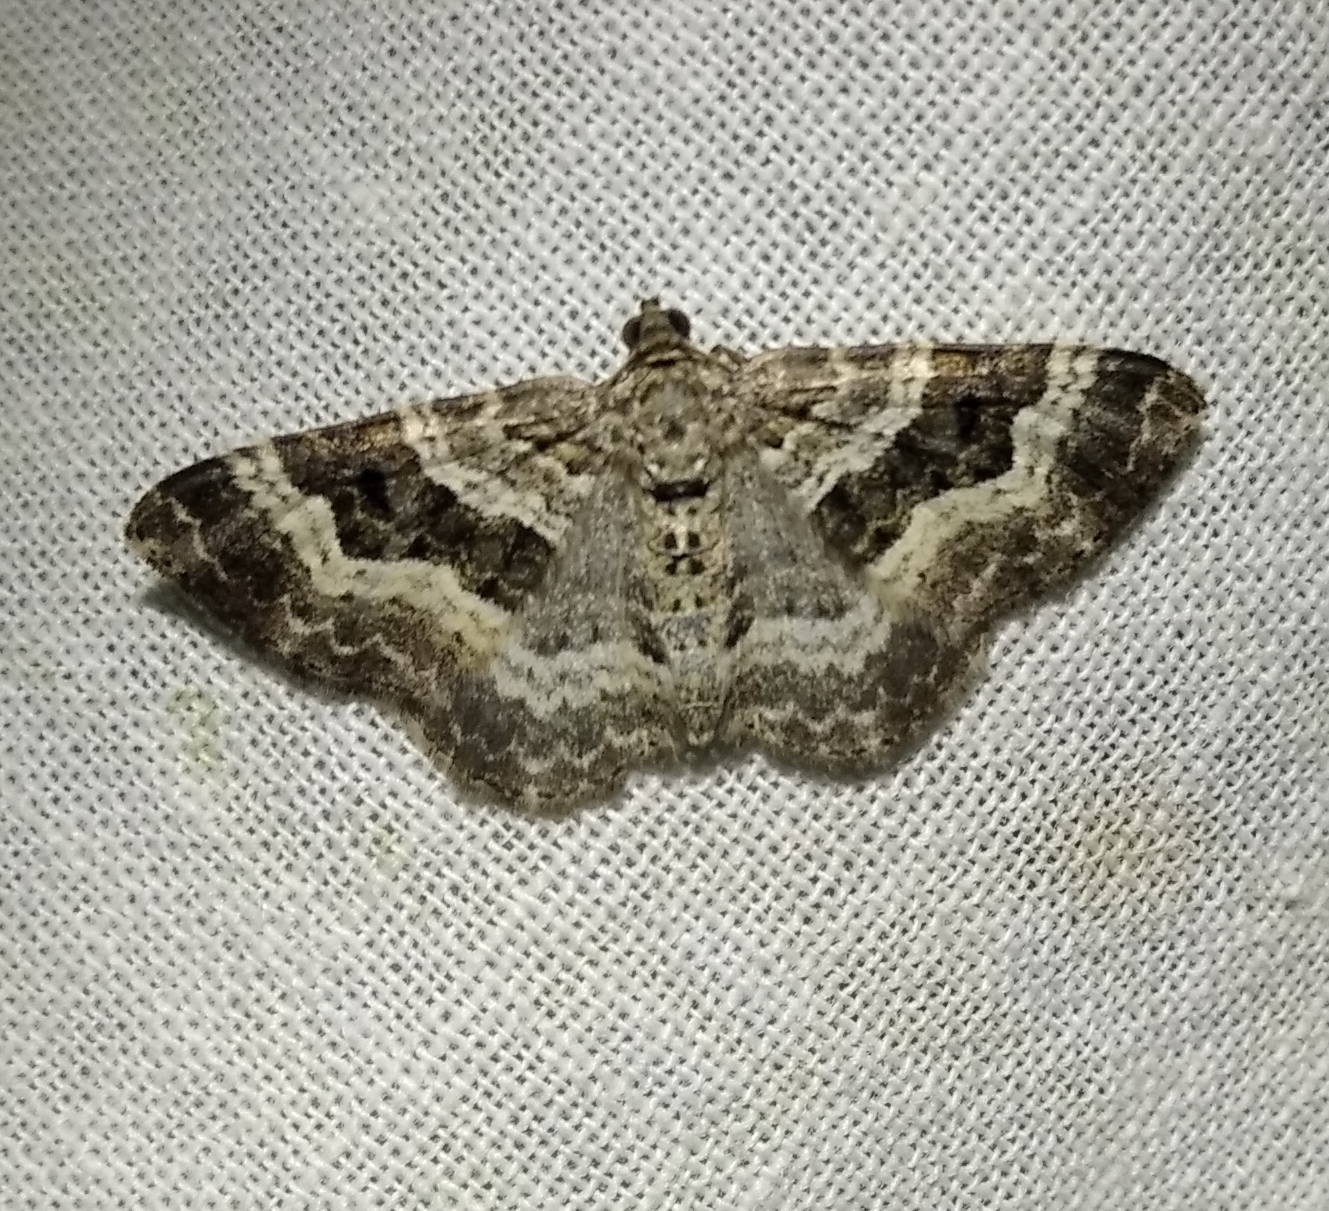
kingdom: Animalia
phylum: Arthropoda
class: Insecta
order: Lepidoptera
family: Geometridae
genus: Epirrhoe
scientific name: Epirrhoe alternata
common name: Common carpet
